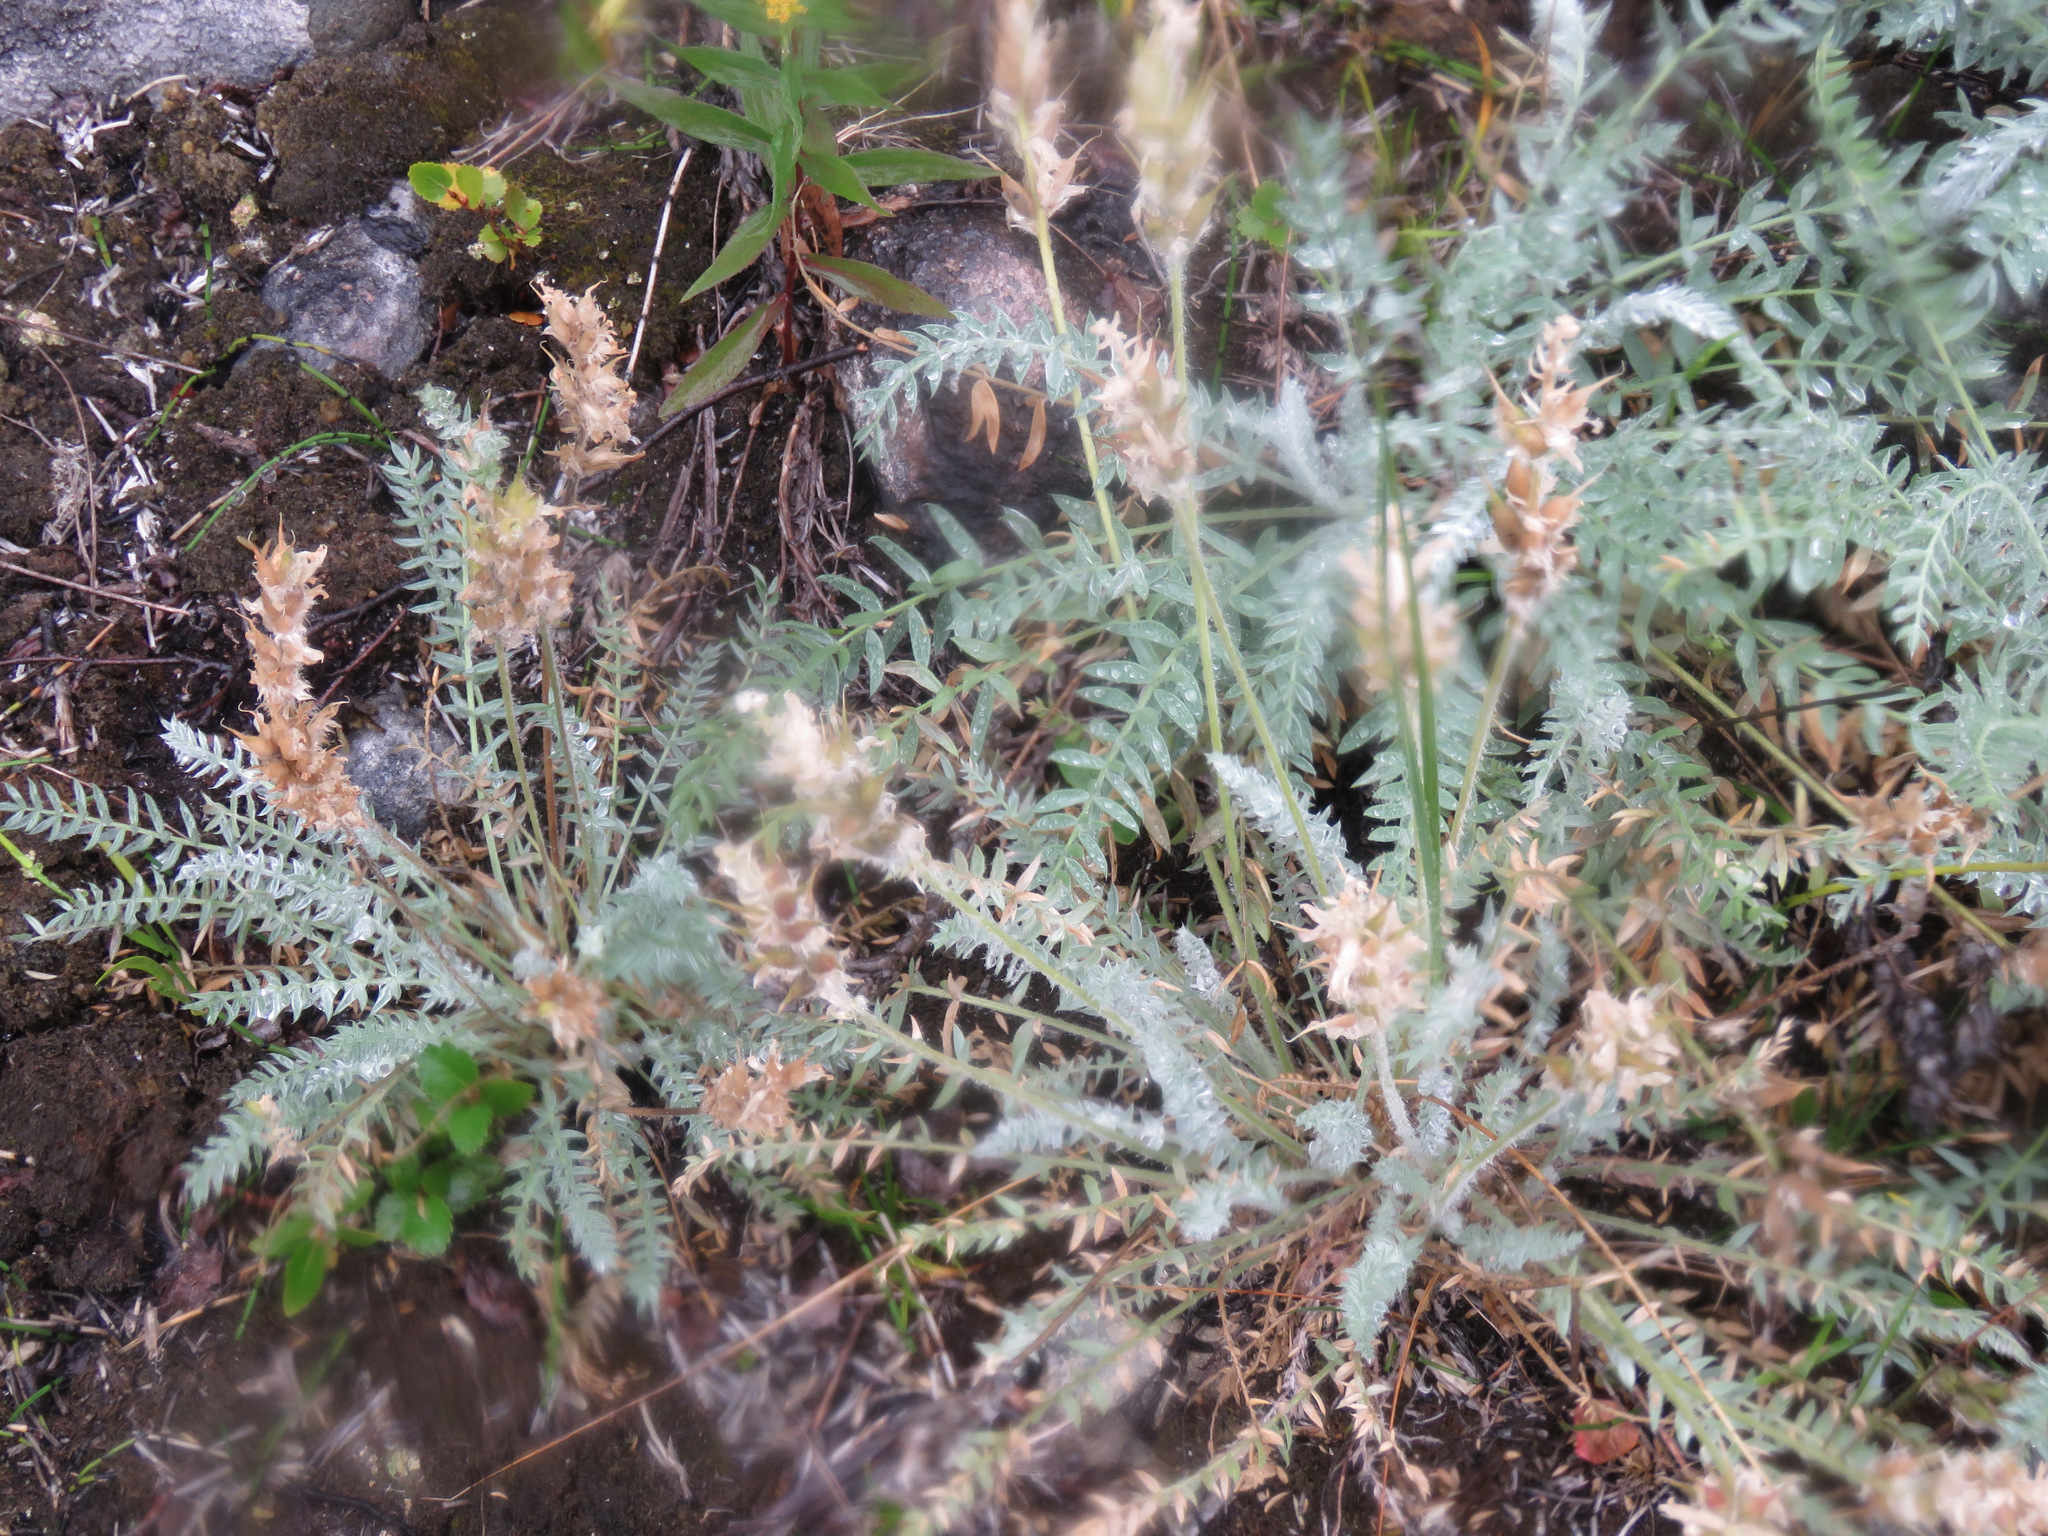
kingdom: Plantae
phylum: Tracheophyta
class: Magnoliopsida
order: Fabales
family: Fabaceae
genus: Oxytropis
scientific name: Oxytropis splendens
